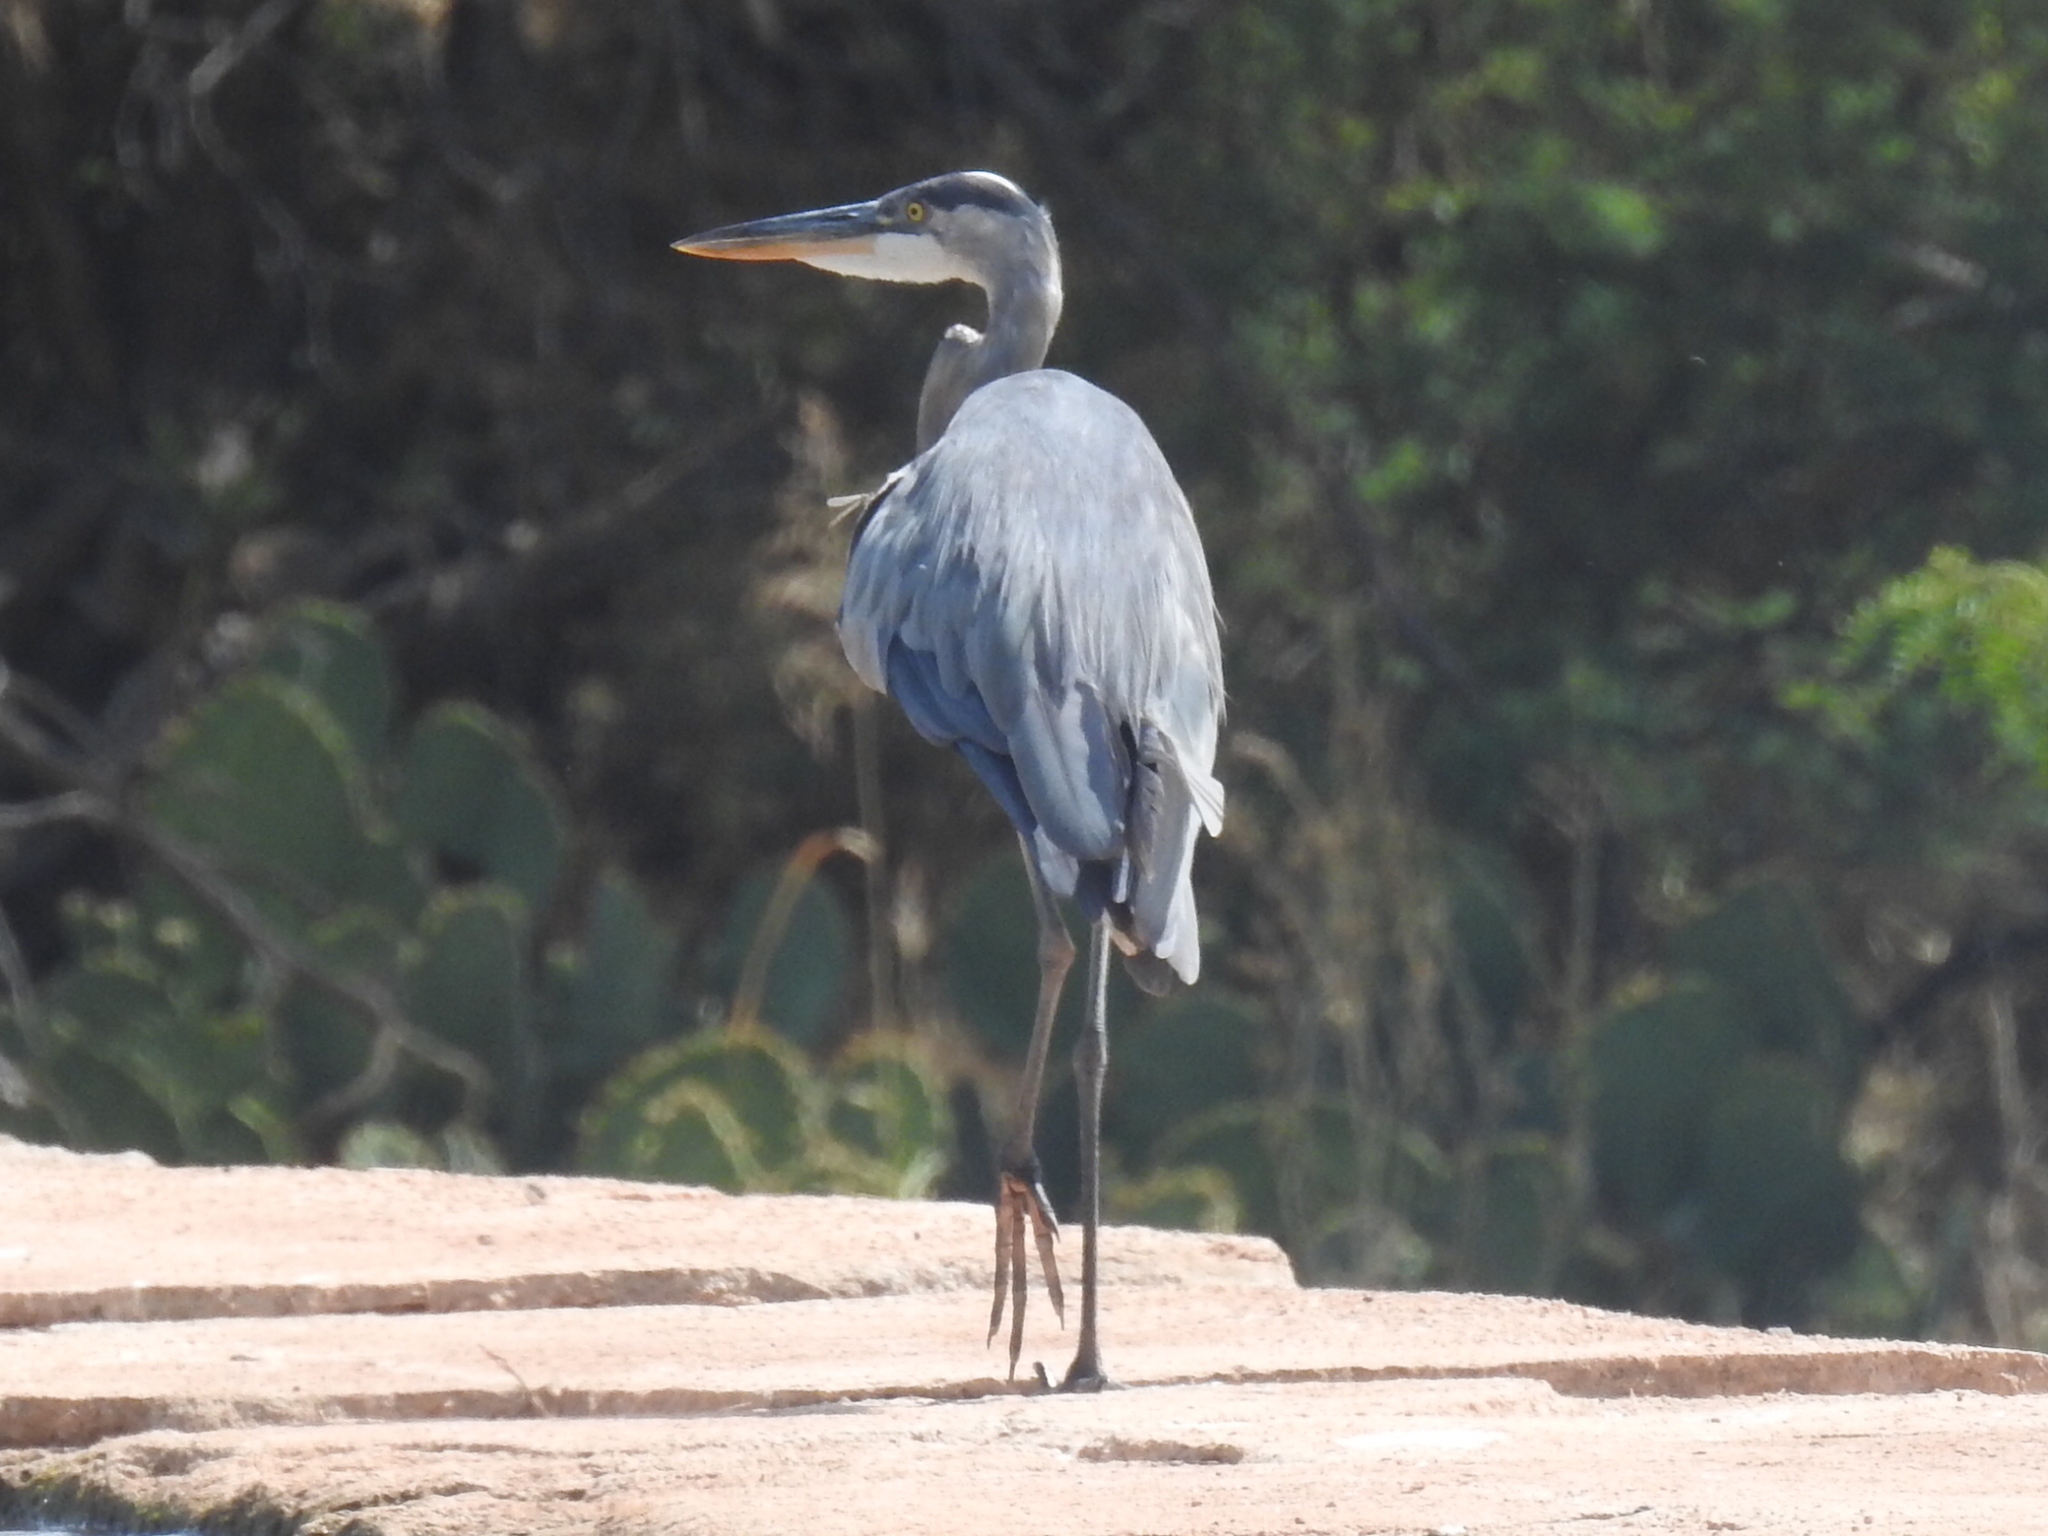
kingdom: Animalia
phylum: Chordata
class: Aves
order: Pelecaniformes
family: Ardeidae
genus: Ardea
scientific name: Ardea herodias
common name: Great blue heron
